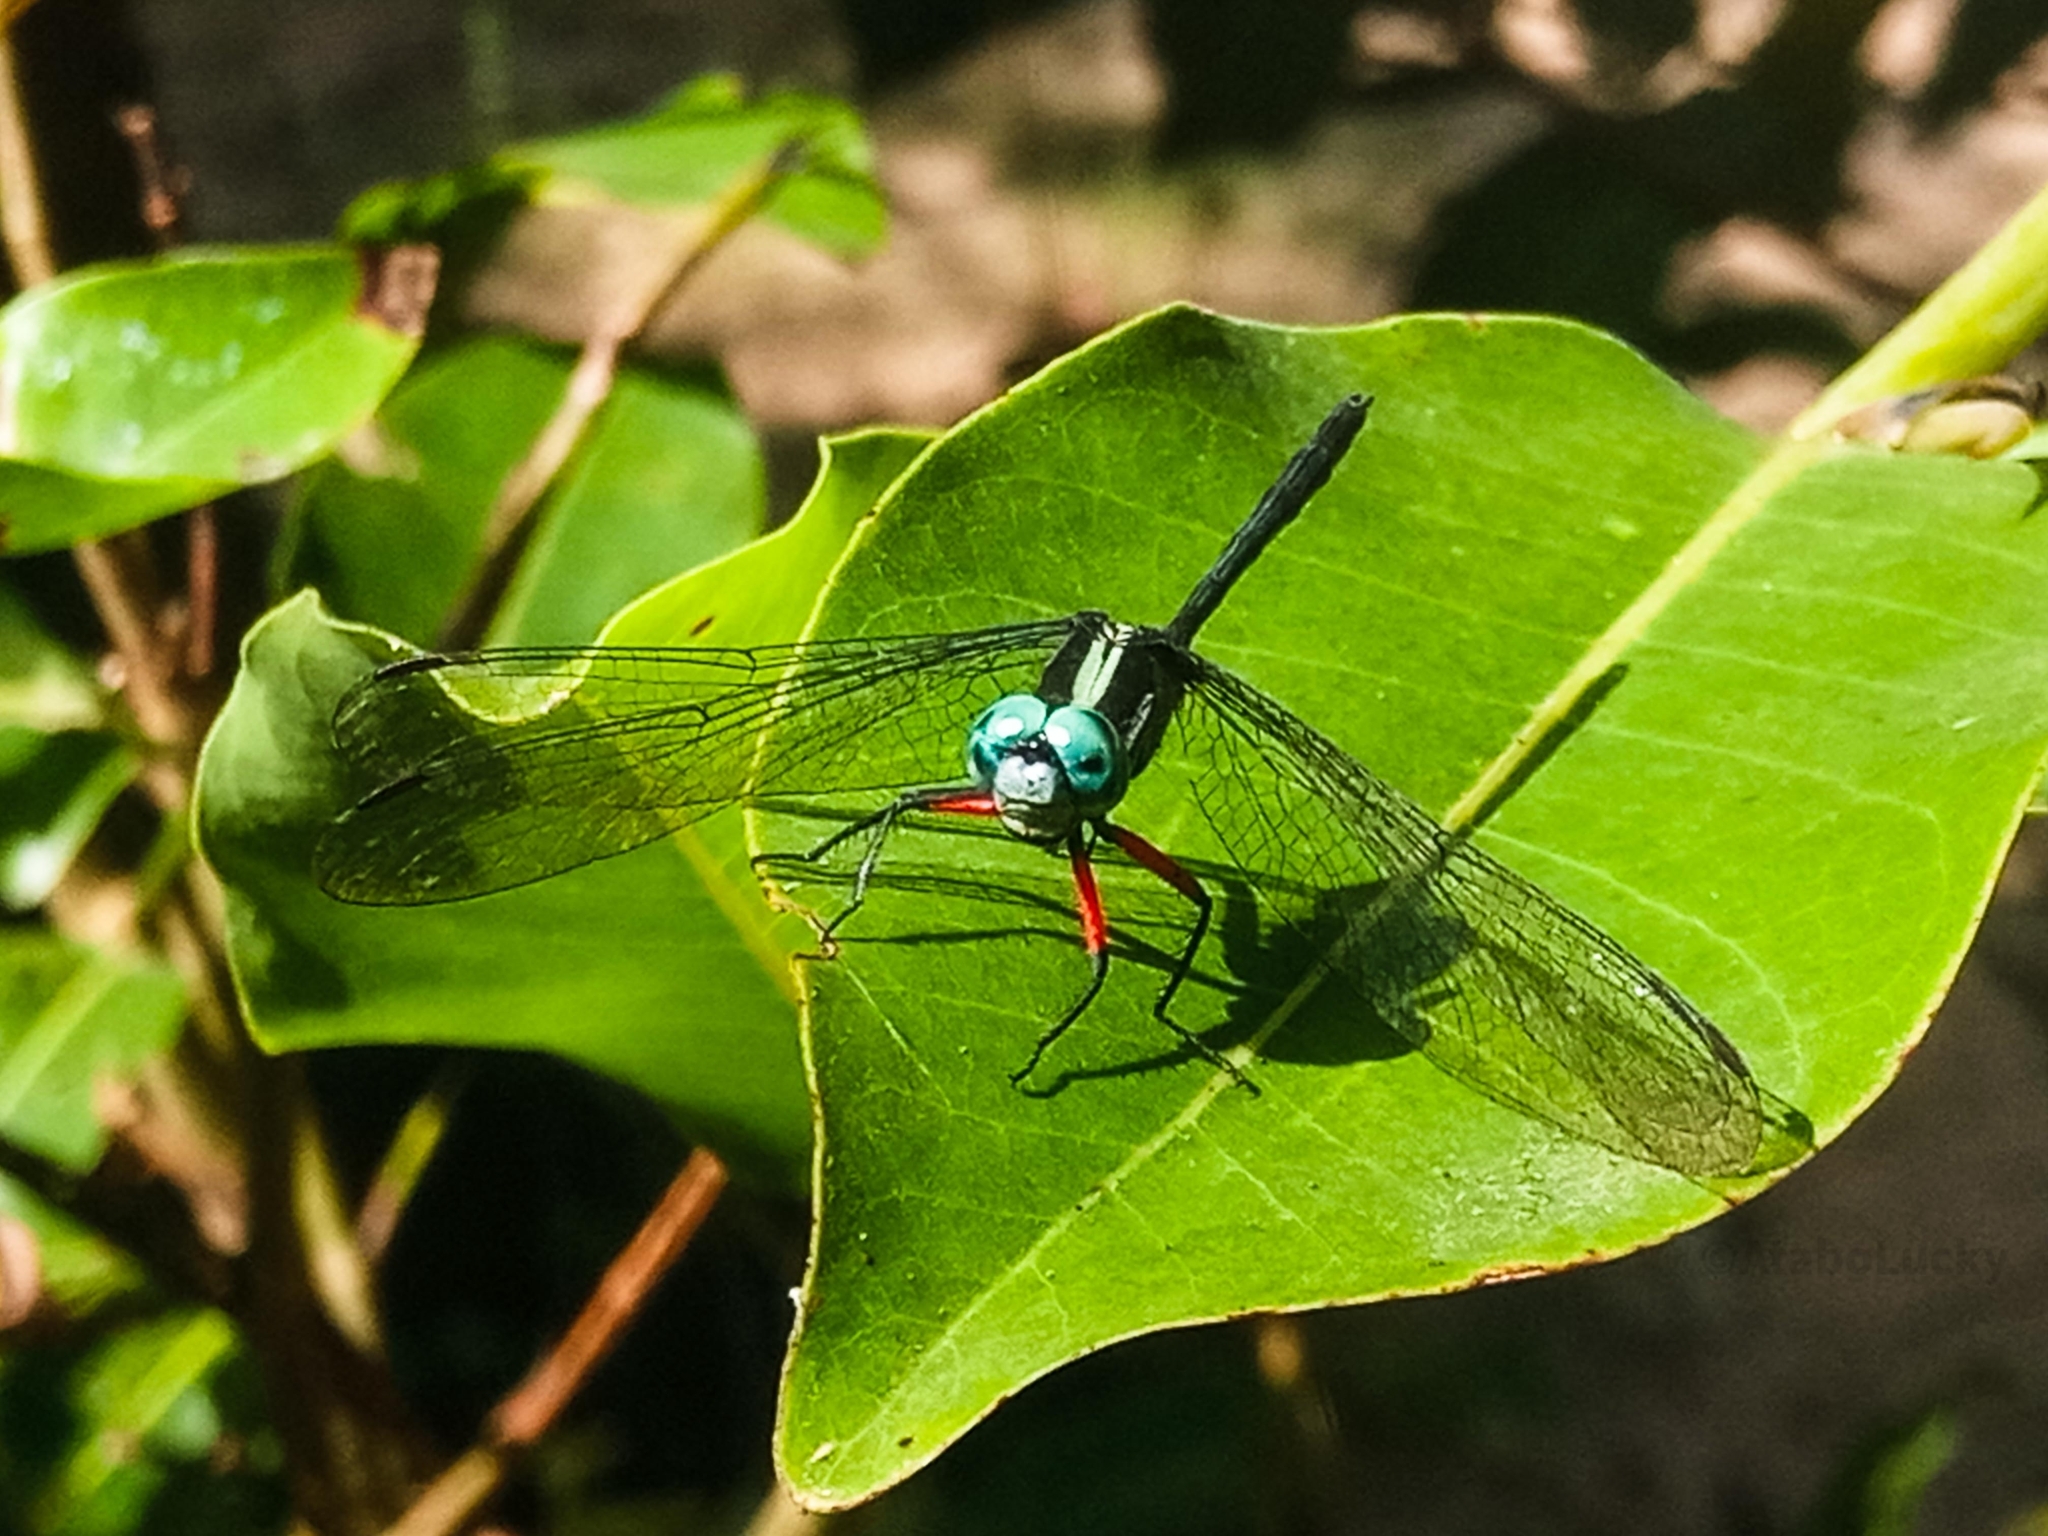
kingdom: Animalia
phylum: Arthropoda
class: Insecta
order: Odonata
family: Libellulidae
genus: Oxythemis
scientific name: Oxythemis phoenicosceles
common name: Pepperpants
